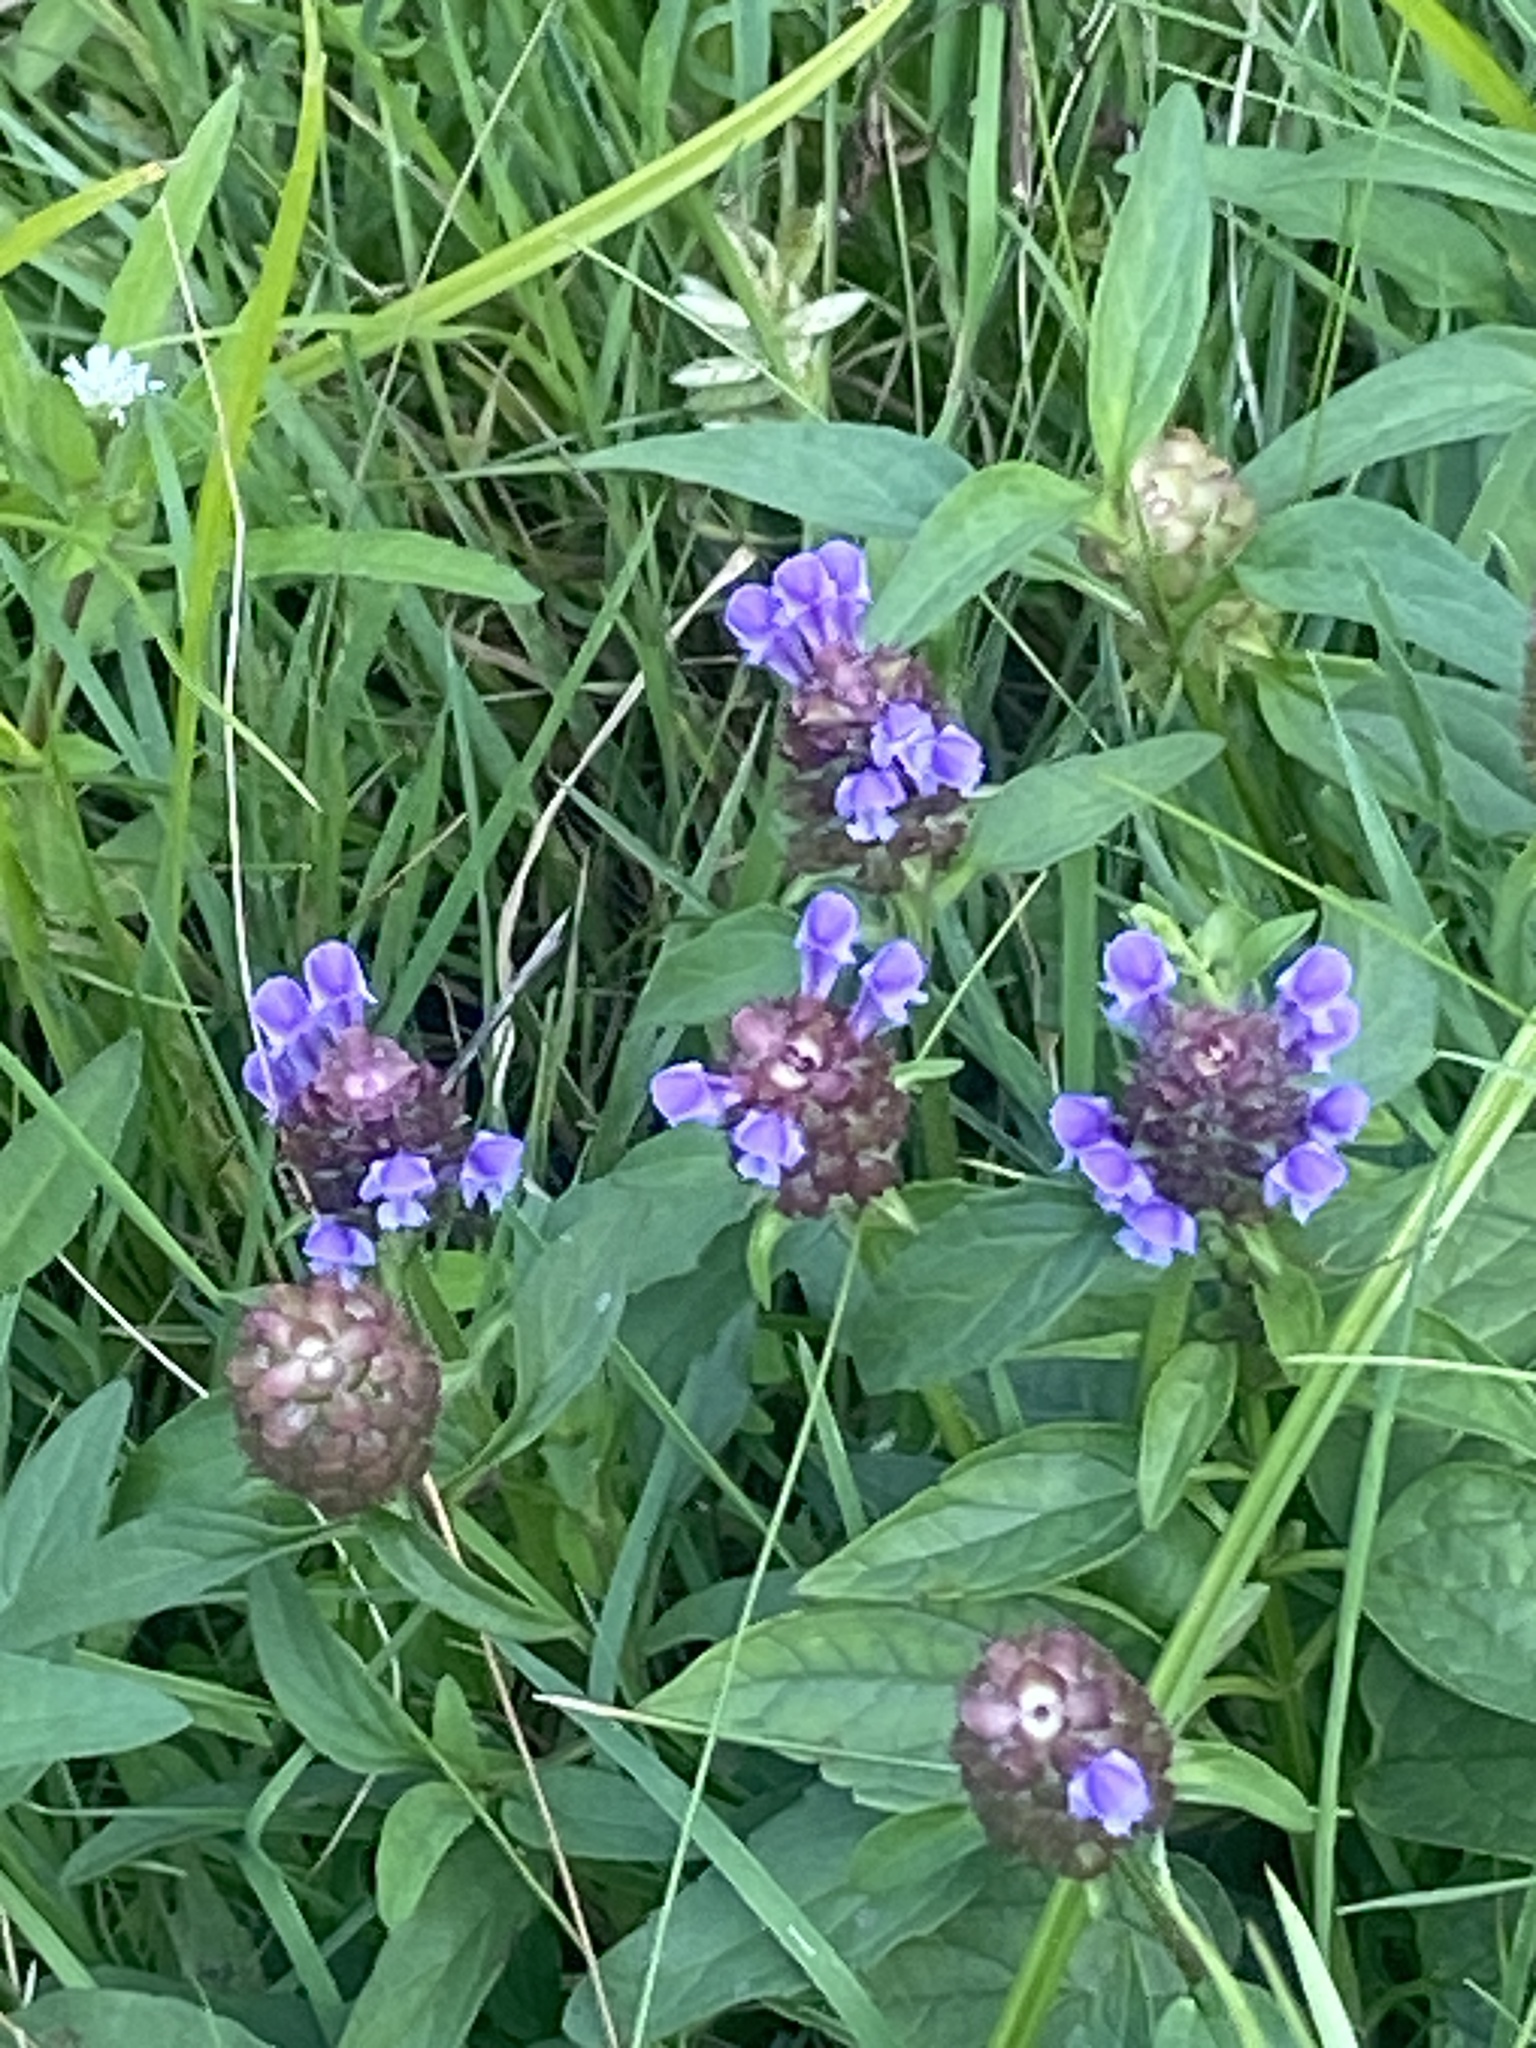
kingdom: Plantae
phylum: Tracheophyta
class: Magnoliopsida
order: Lamiales
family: Lamiaceae
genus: Prunella
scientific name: Prunella vulgaris
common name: Heal-all
